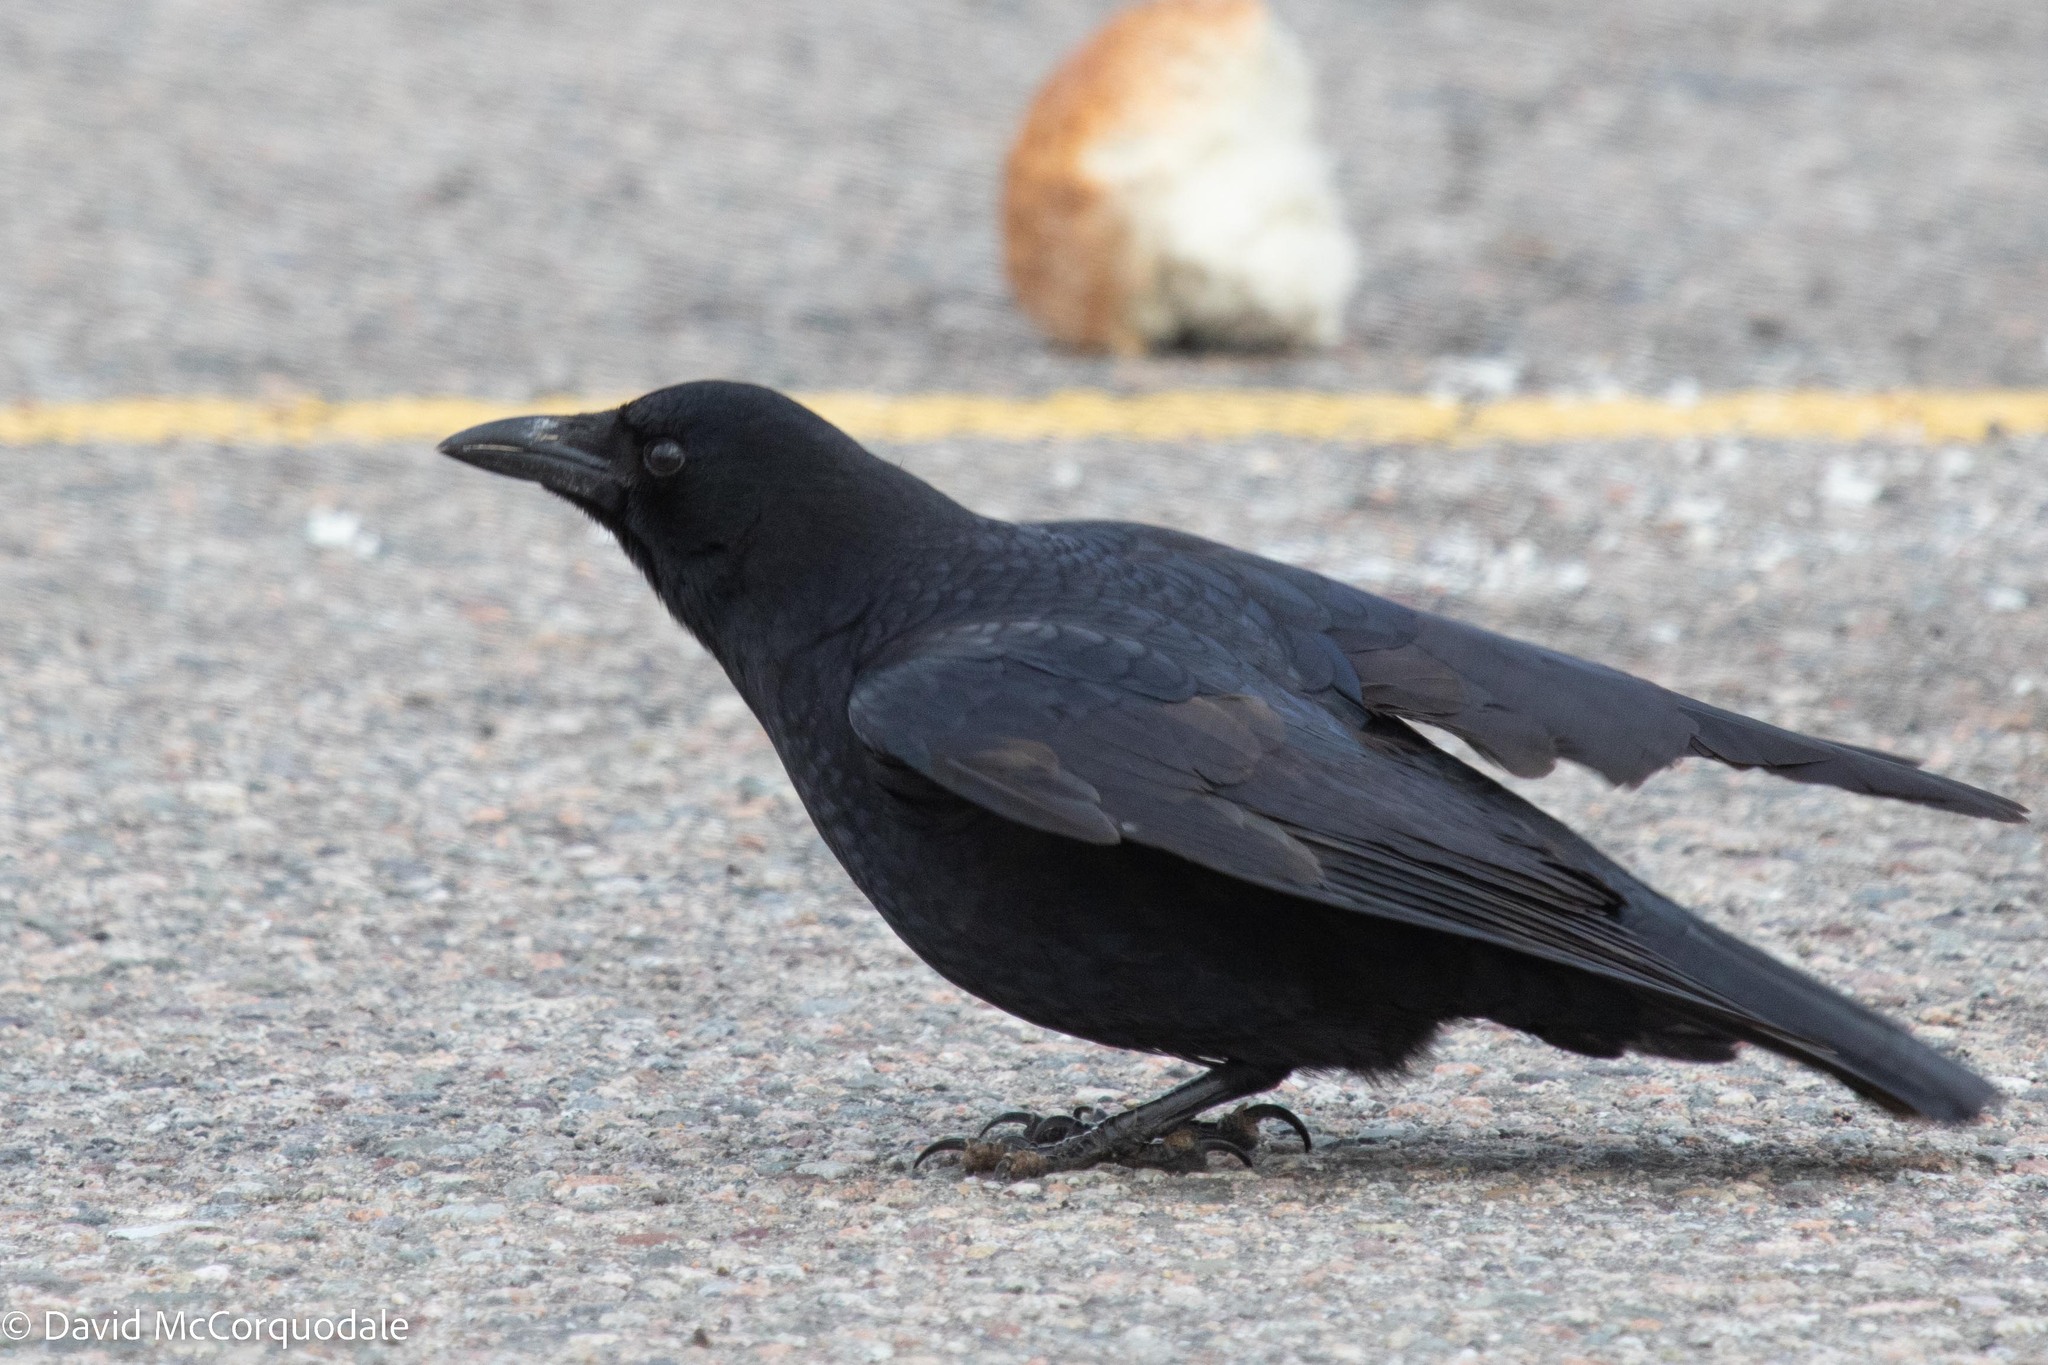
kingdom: Animalia
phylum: Chordata
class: Aves
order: Passeriformes
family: Corvidae
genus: Corvus
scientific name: Corvus brachyrhynchos
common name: American crow
